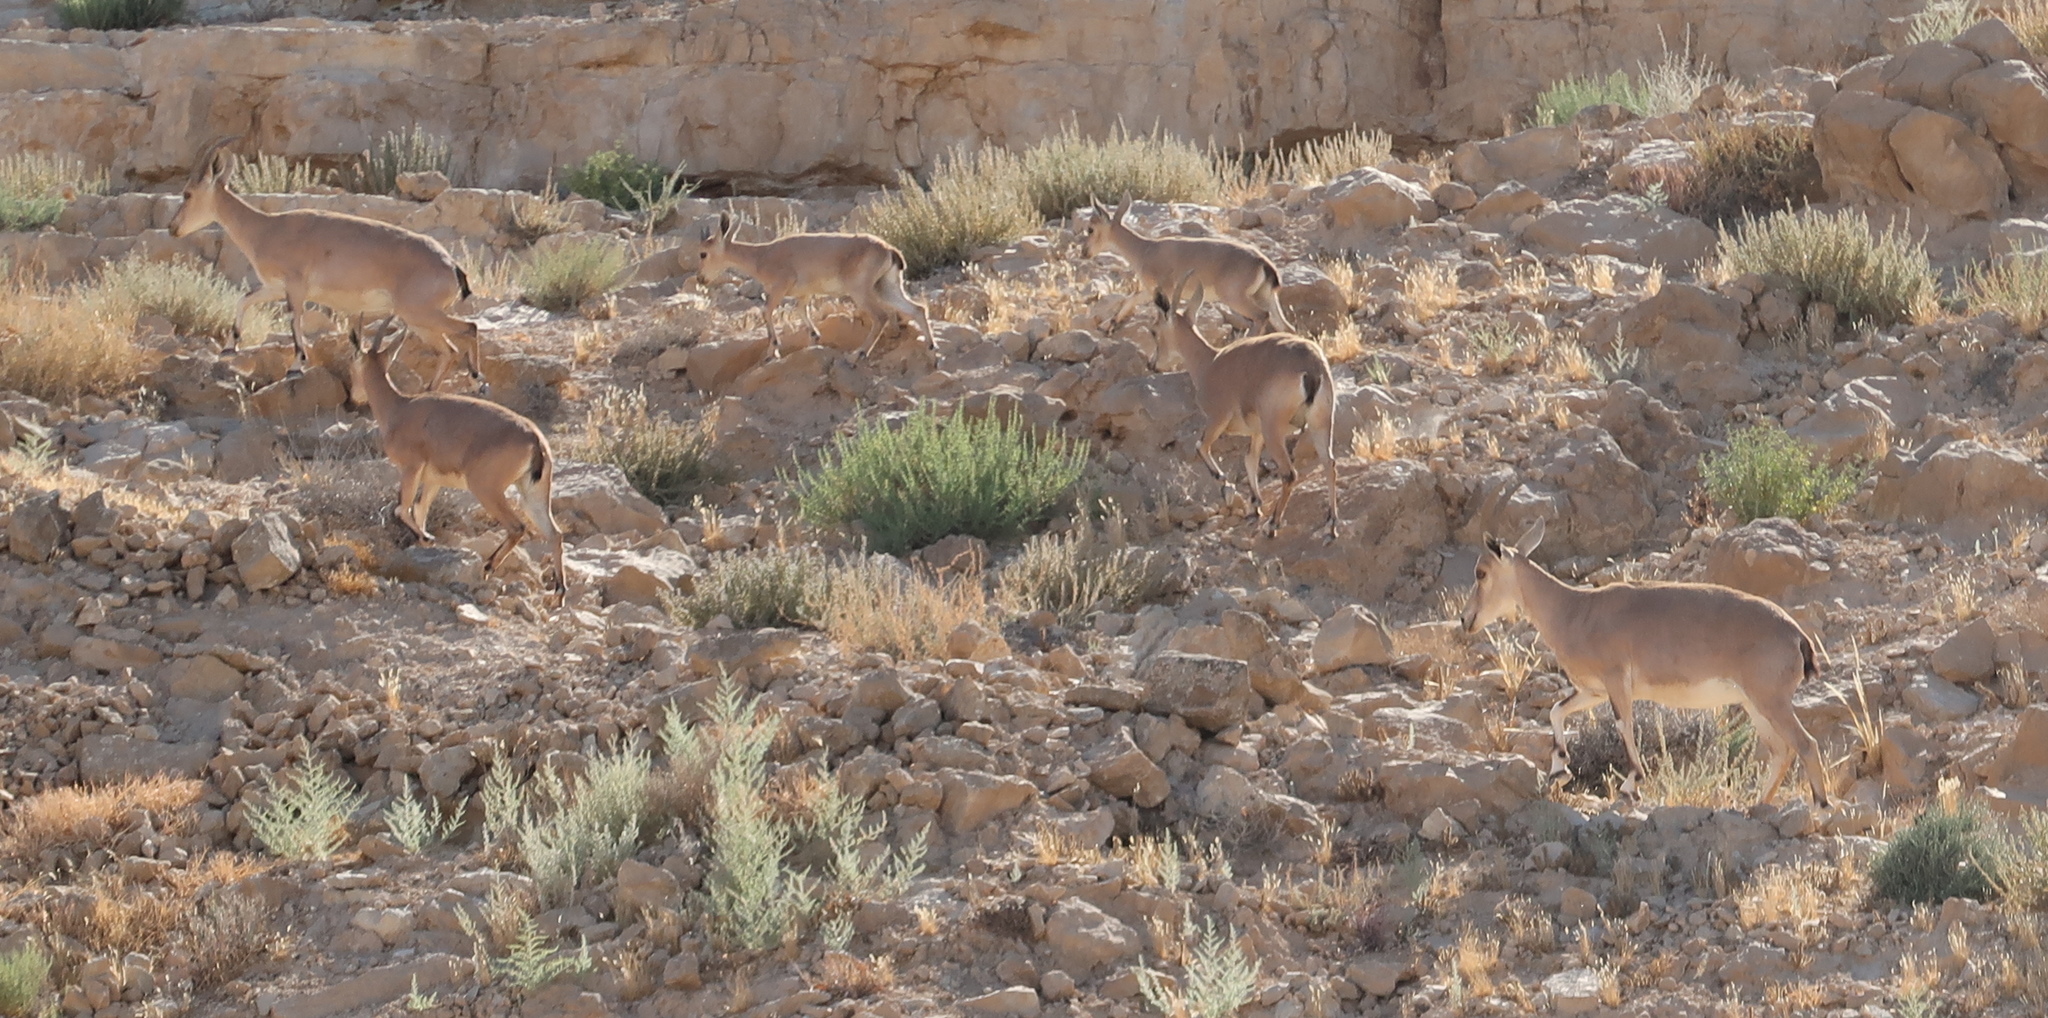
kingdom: Animalia
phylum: Chordata
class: Mammalia
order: Artiodactyla
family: Bovidae
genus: Capra
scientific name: Capra nubiana
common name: Nubian ibex
